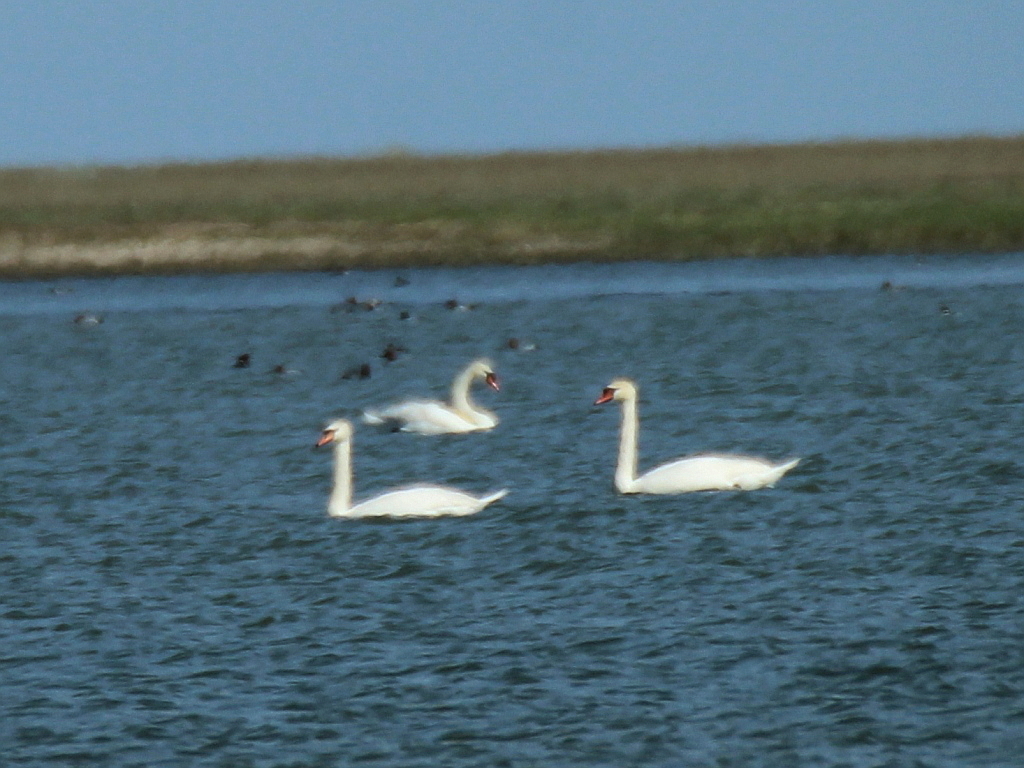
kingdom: Animalia
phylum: Chordata
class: Aves
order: Anseriformes
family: Anatidae
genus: Cygnus
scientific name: Cygnus olor
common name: Mute swan
